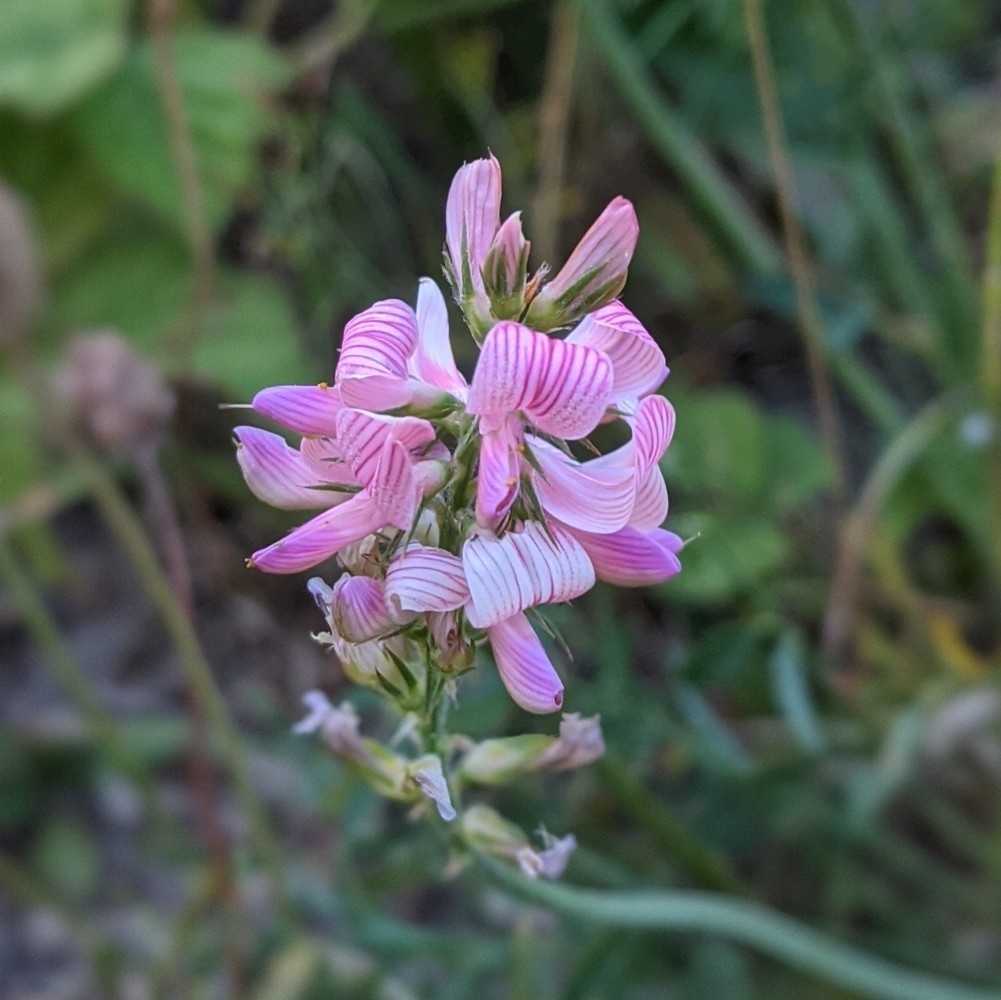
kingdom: Plantae
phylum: Tracheophyta
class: Magnoliopsida
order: Fabales
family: Fabaceae
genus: Onobrychis
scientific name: Onobrychis viciifolia
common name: Sainfoin
